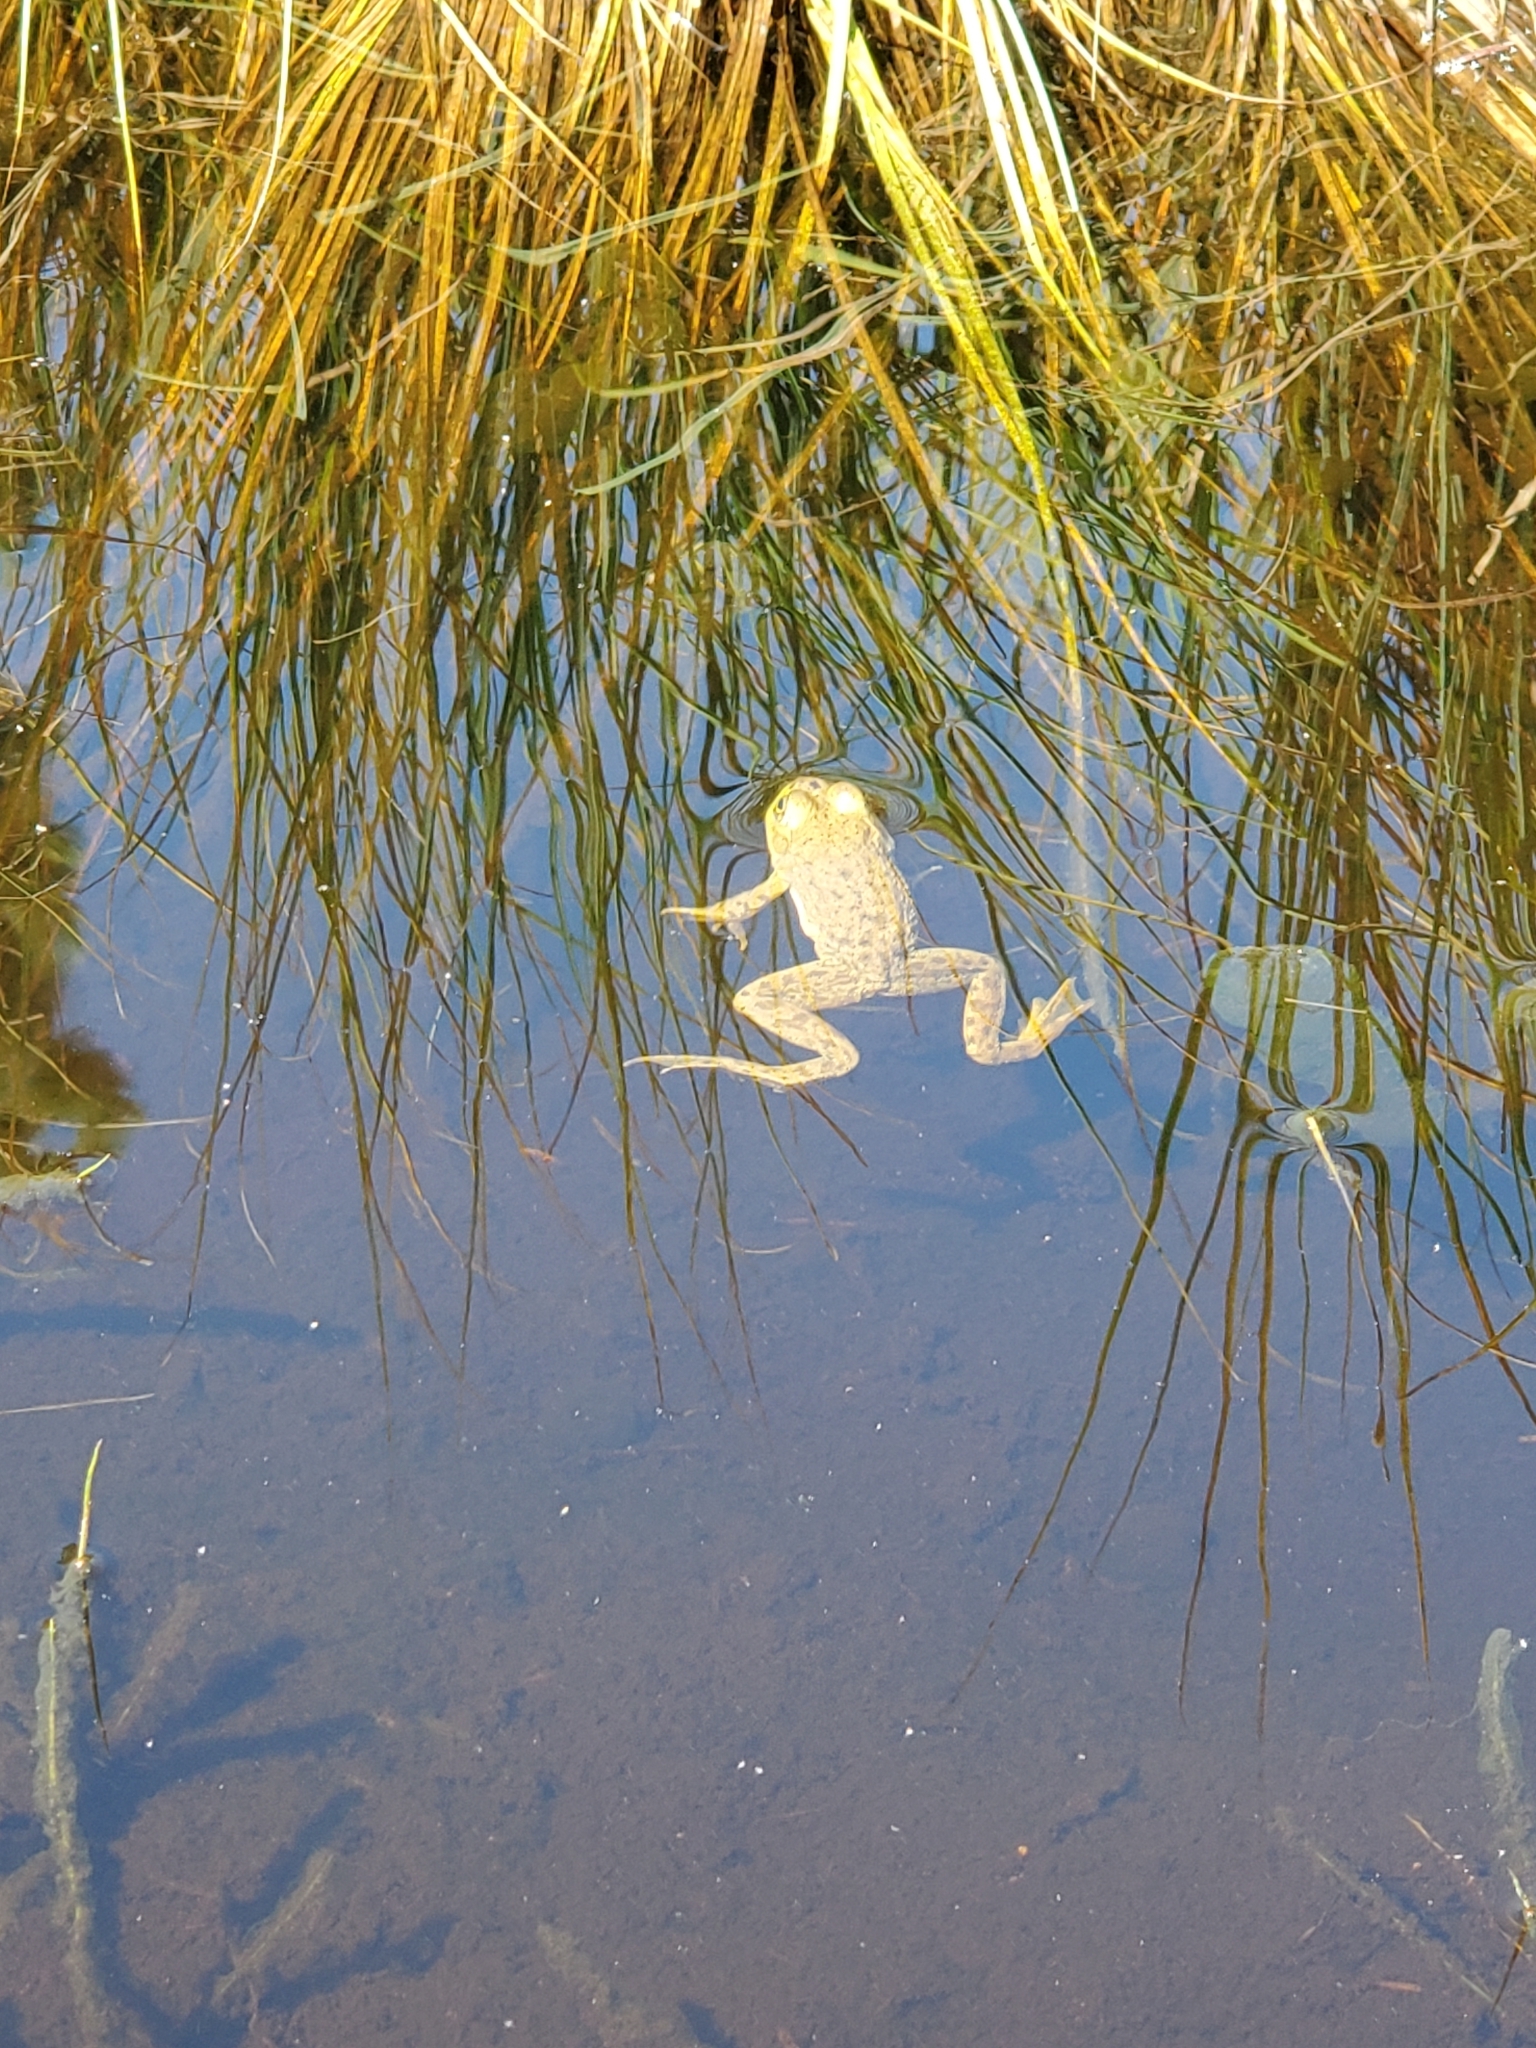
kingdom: Animalia
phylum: Chordata
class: Amphibia
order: Anura
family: Ranidae
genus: Lithobates
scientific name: Lithobates catesbeianus
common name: American bullfrog
